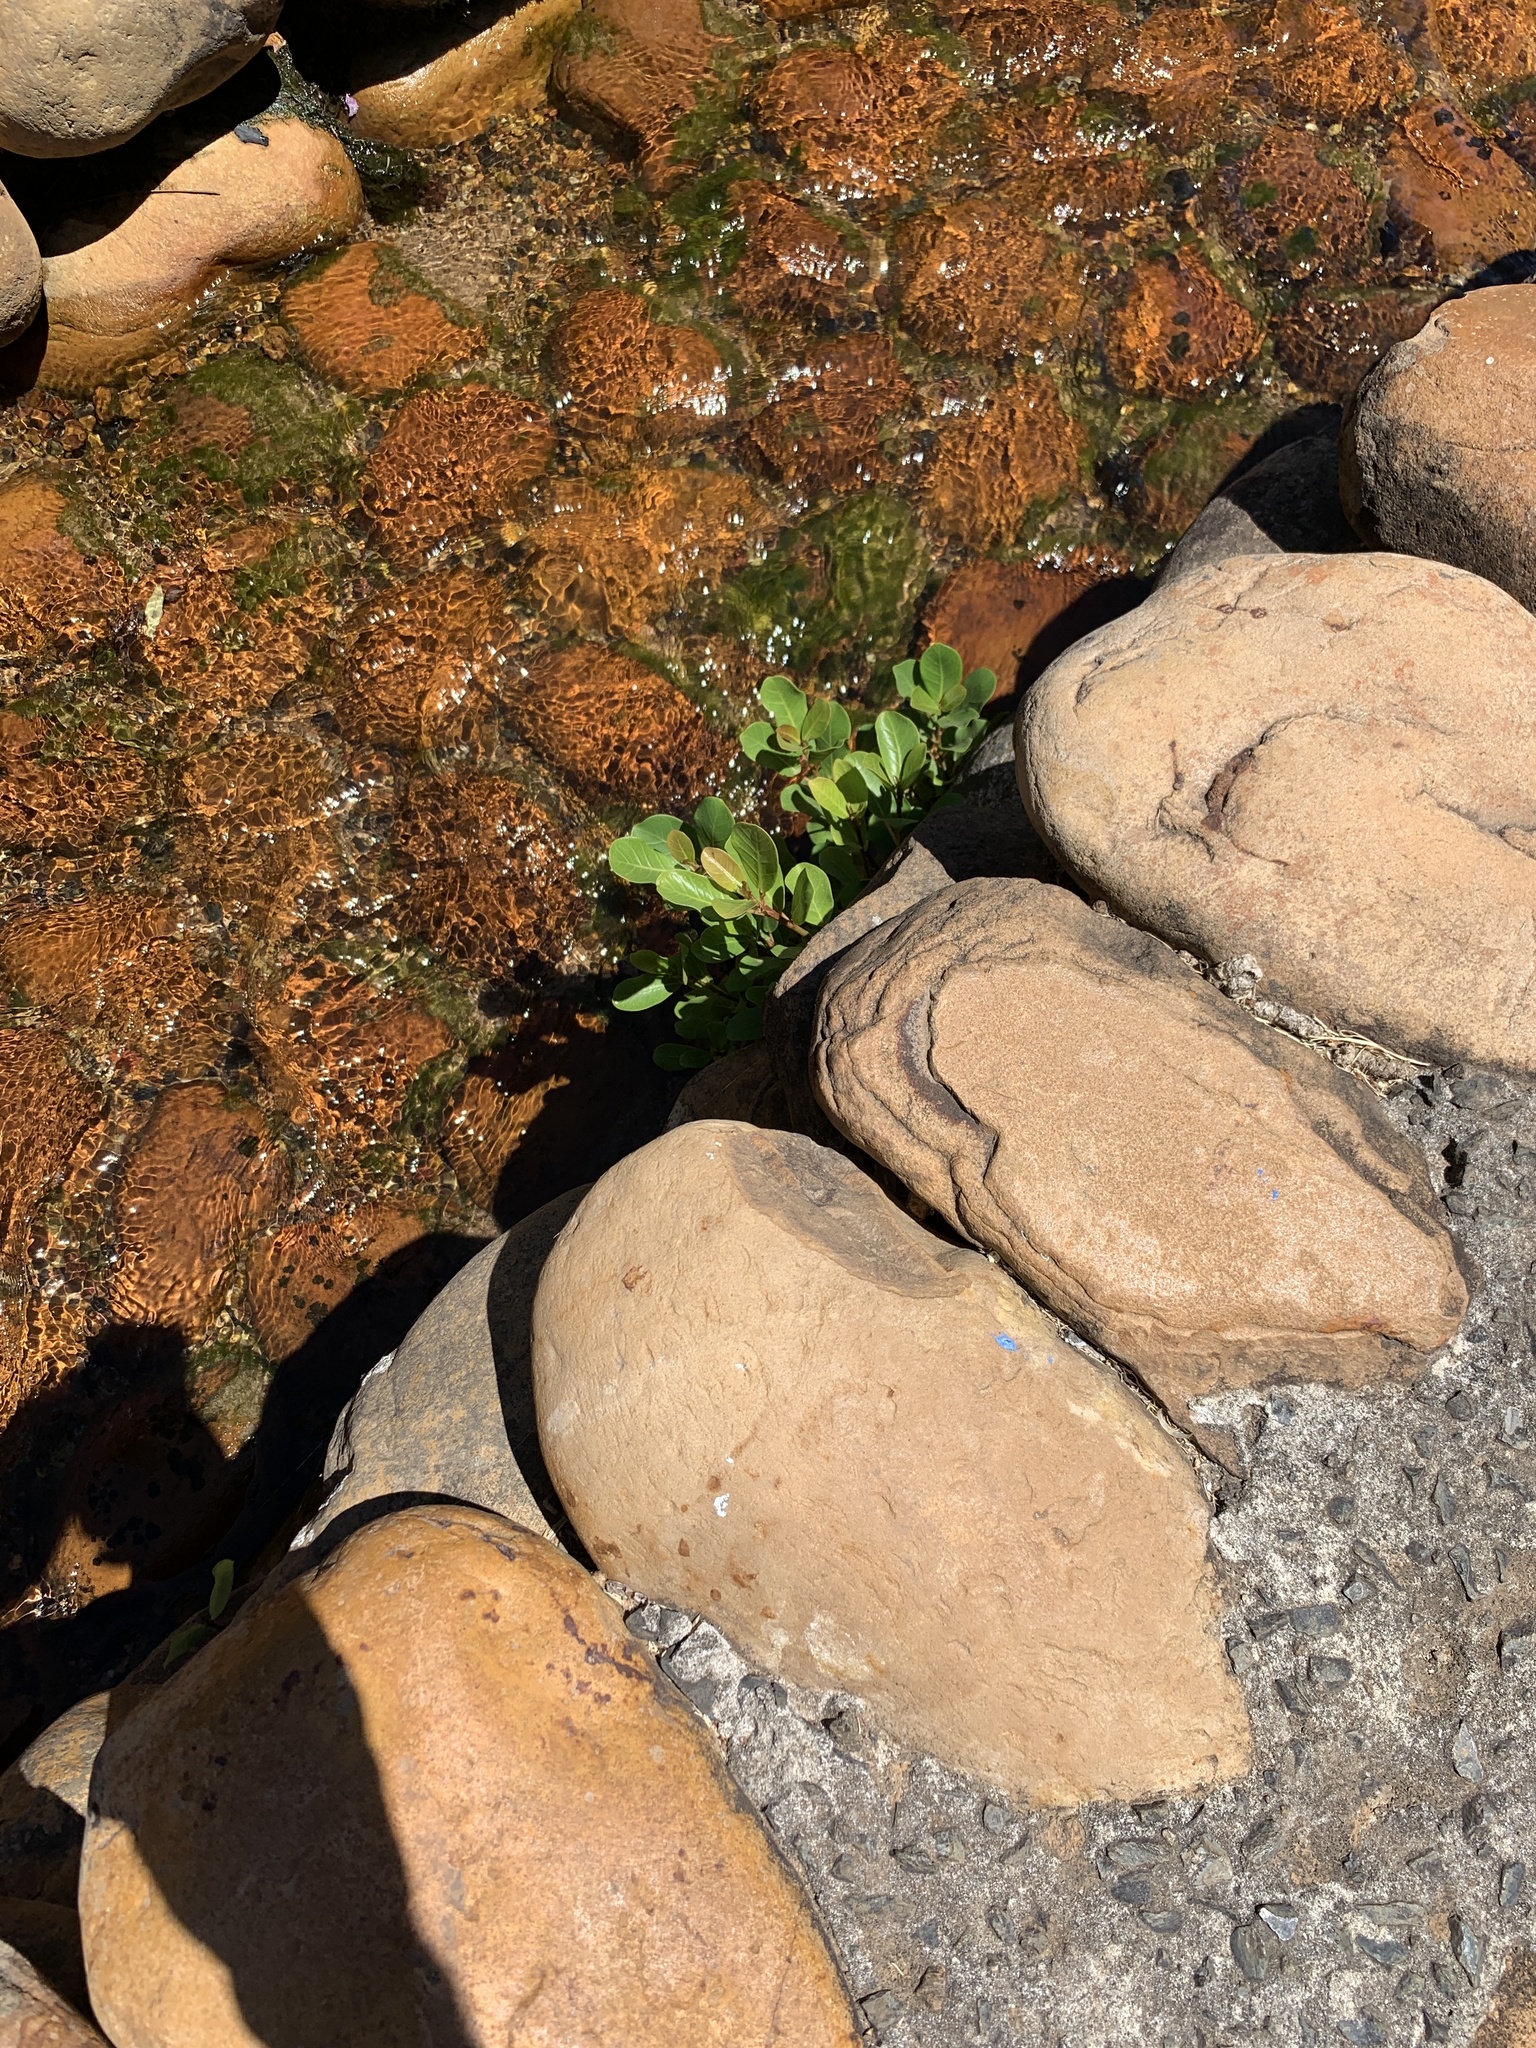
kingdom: Plantae
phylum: Tracheophyta
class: Magnoliopsida
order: Rosales
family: Moraceae
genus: Ficus
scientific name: Ficus thonningii
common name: Fig
